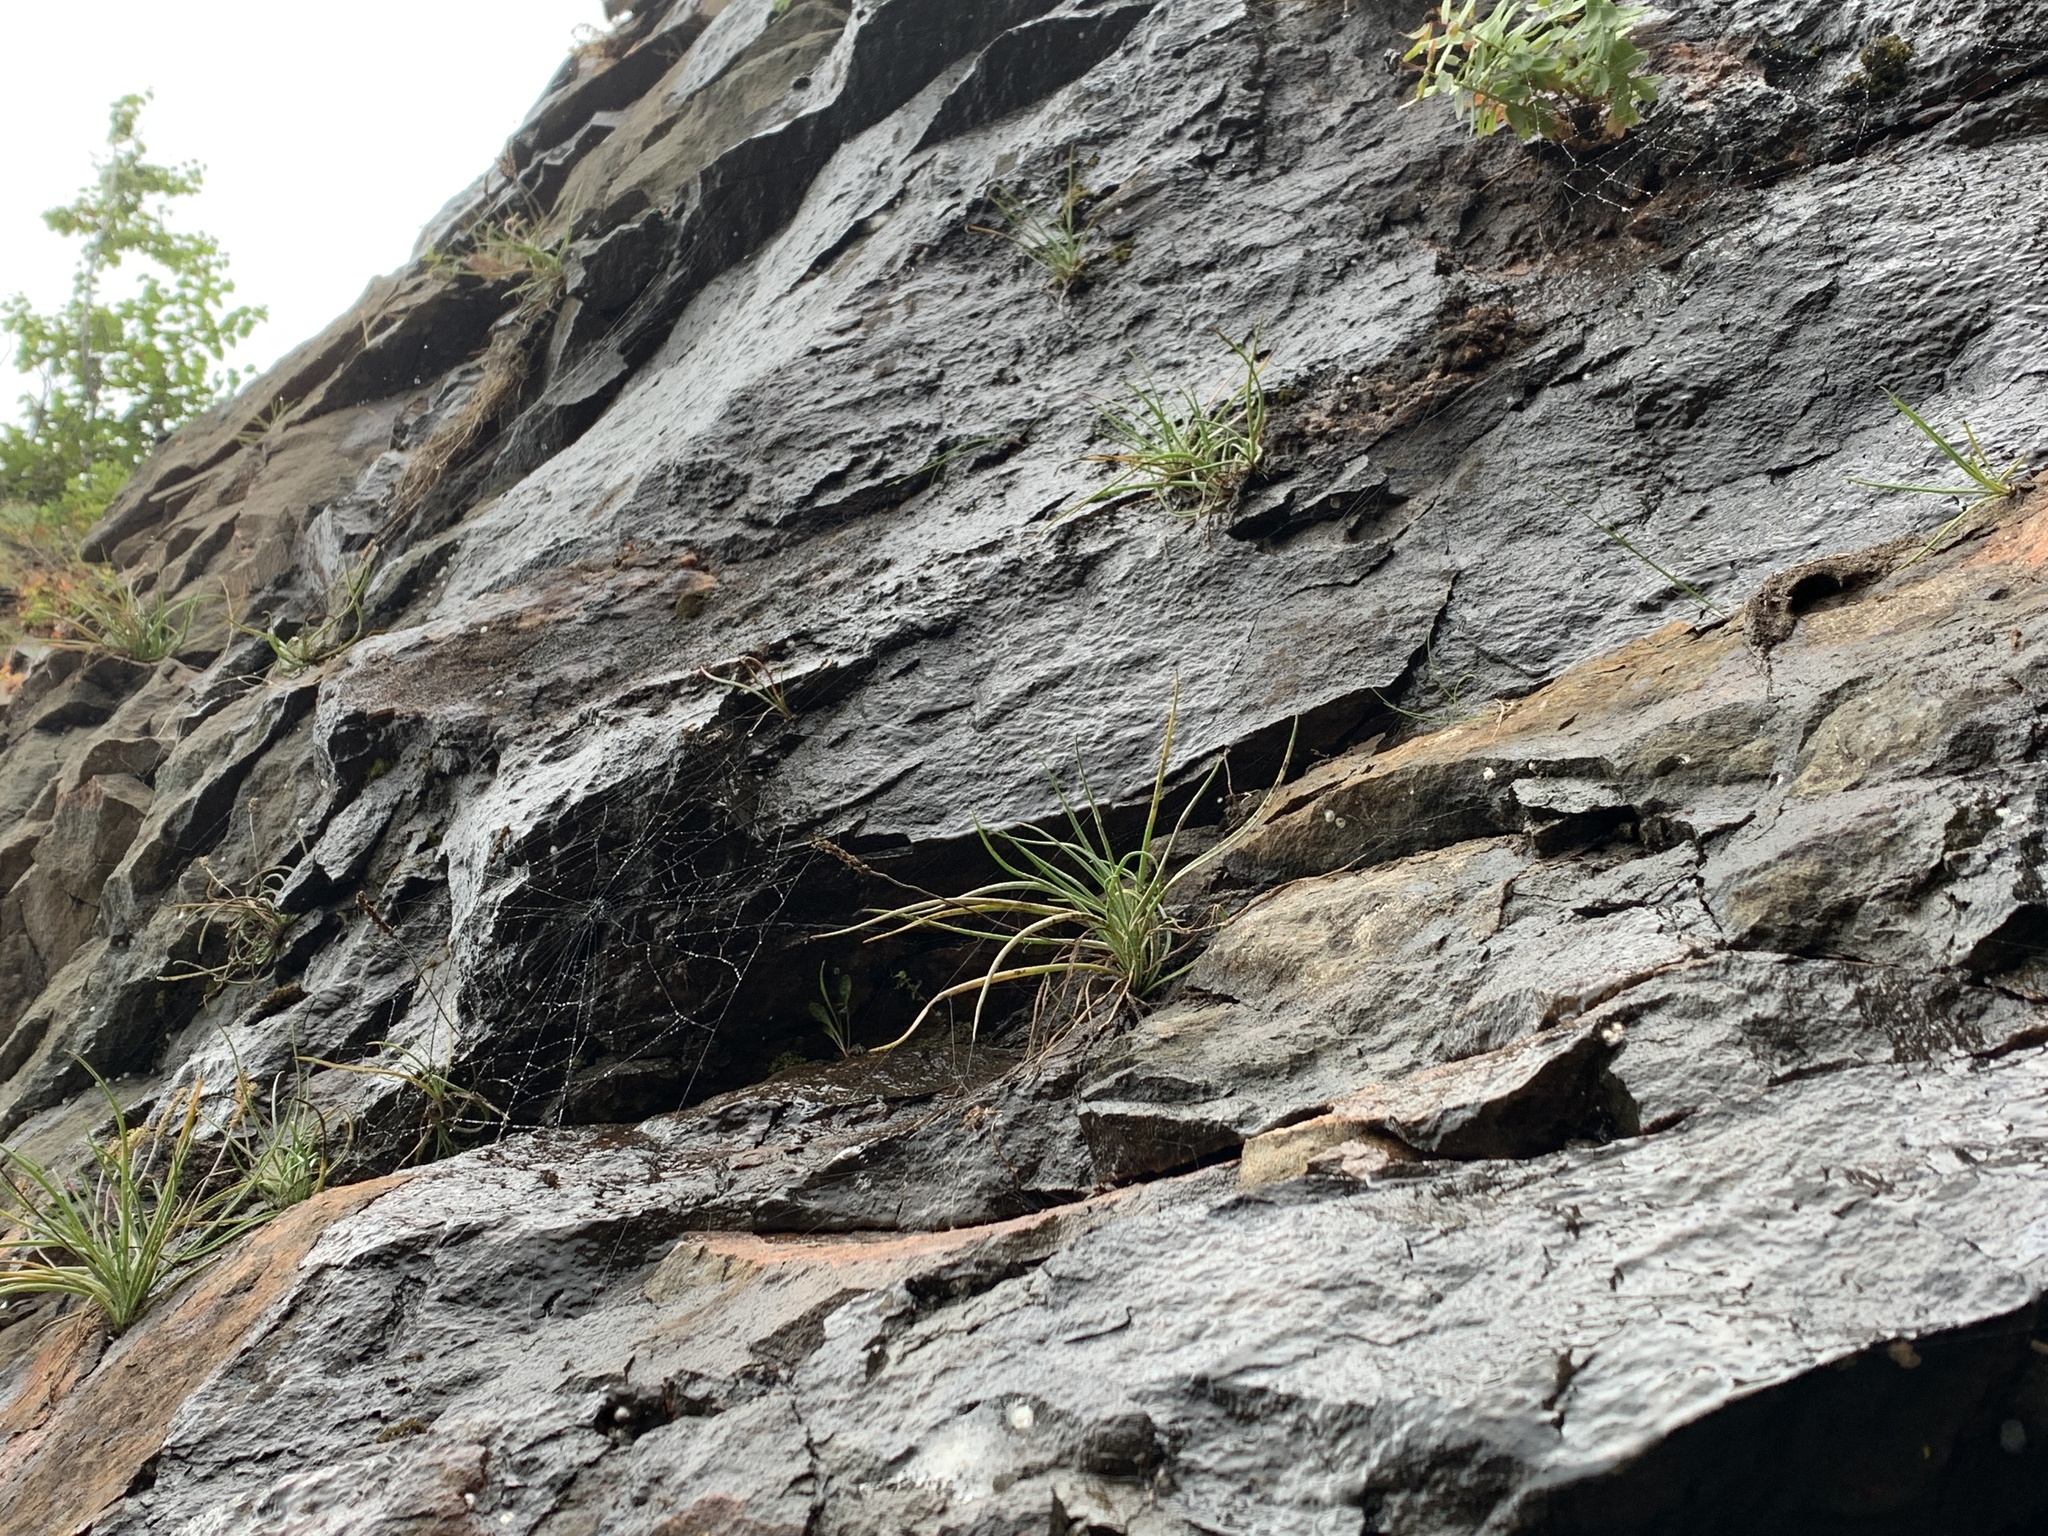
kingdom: Plantae
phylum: Tracheophyta
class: Magnoliopsida
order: Lamiales
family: Plantaginaceae
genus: Plantago
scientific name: Plantago maritima
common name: Sea plantain
